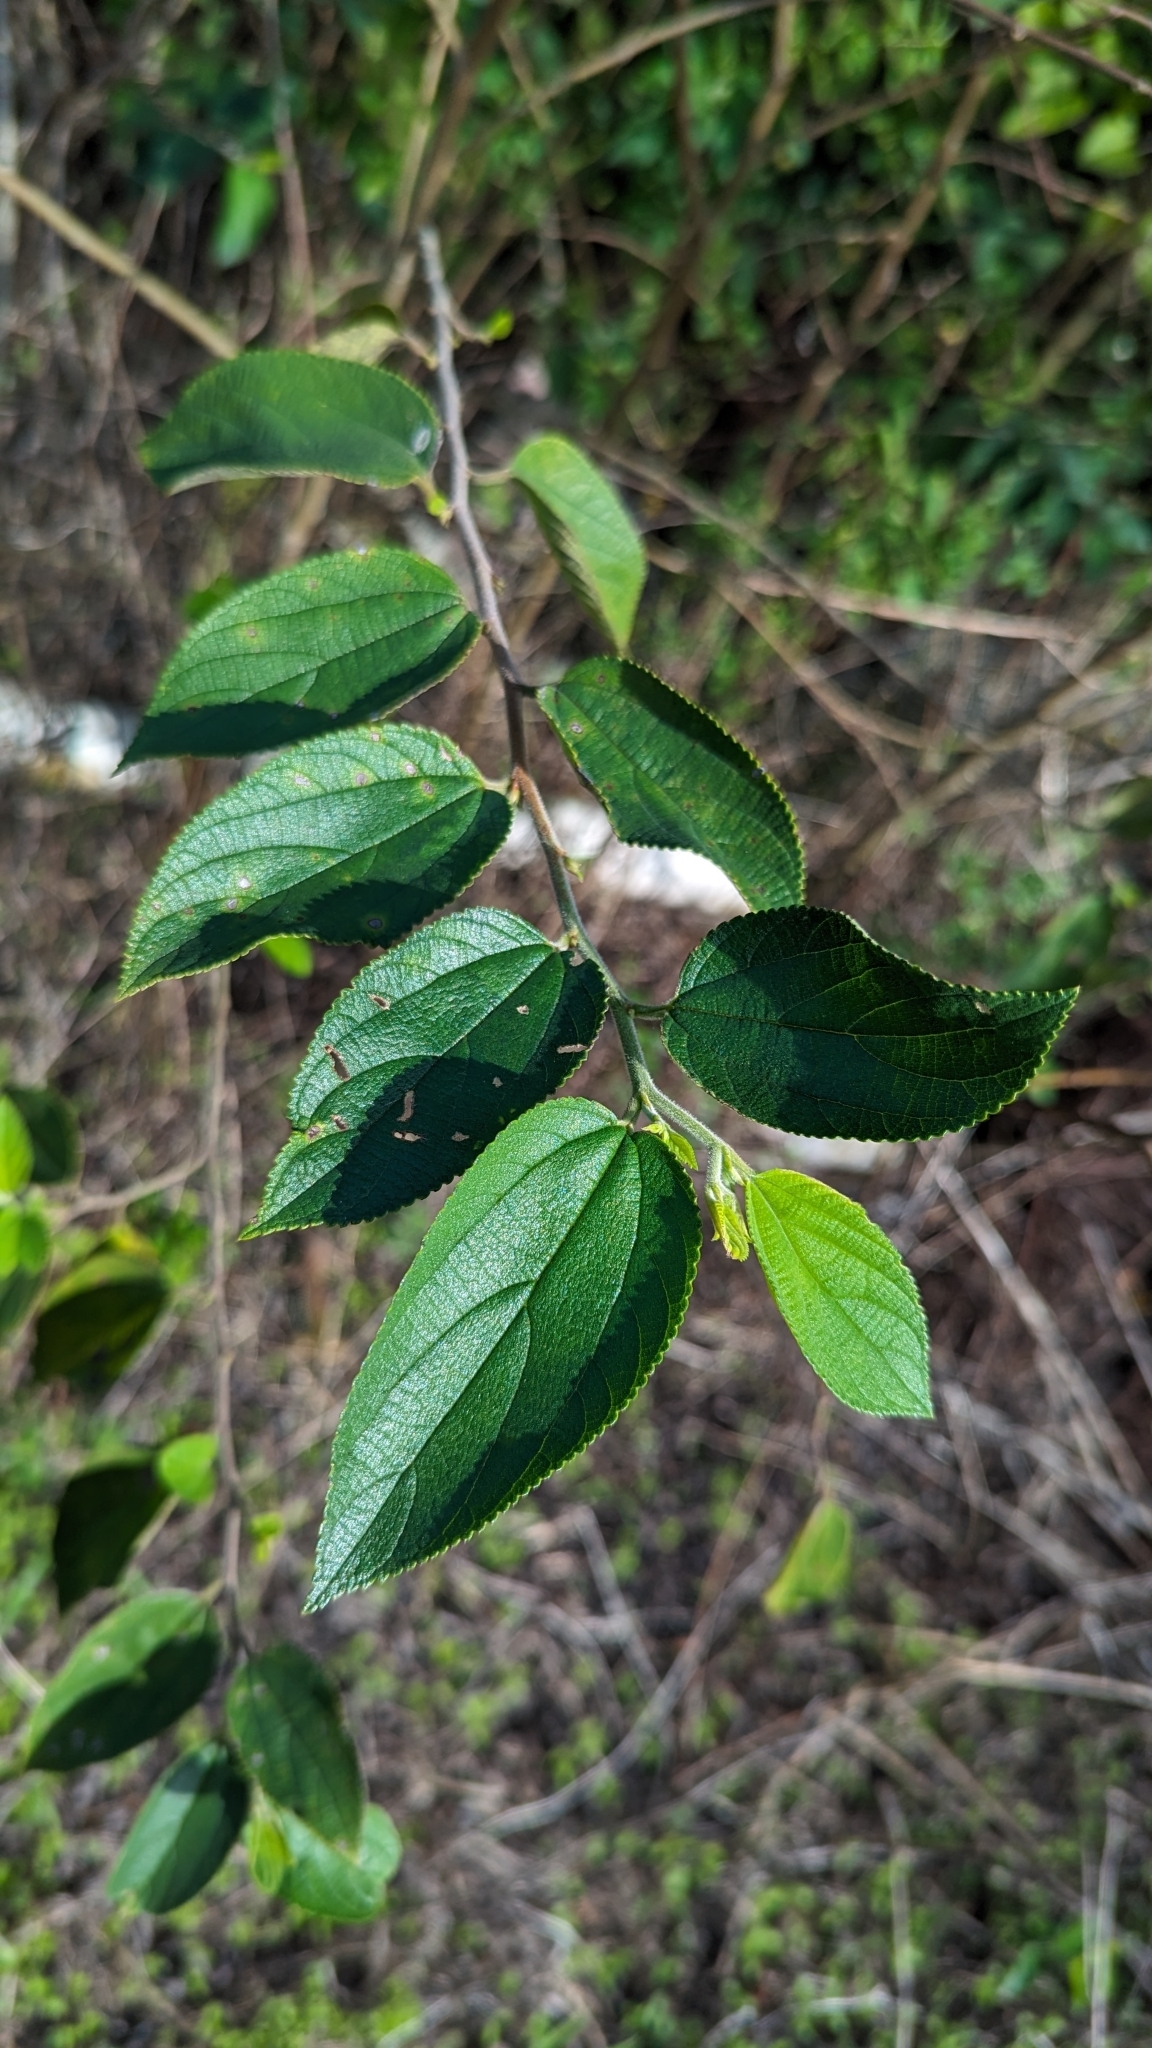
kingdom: Plantae
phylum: Tracheophyta
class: Magnoliopsida
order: Rosales
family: Cannabaceae
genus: Trema
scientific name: Trema micranthum
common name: Jamaican nettletree
